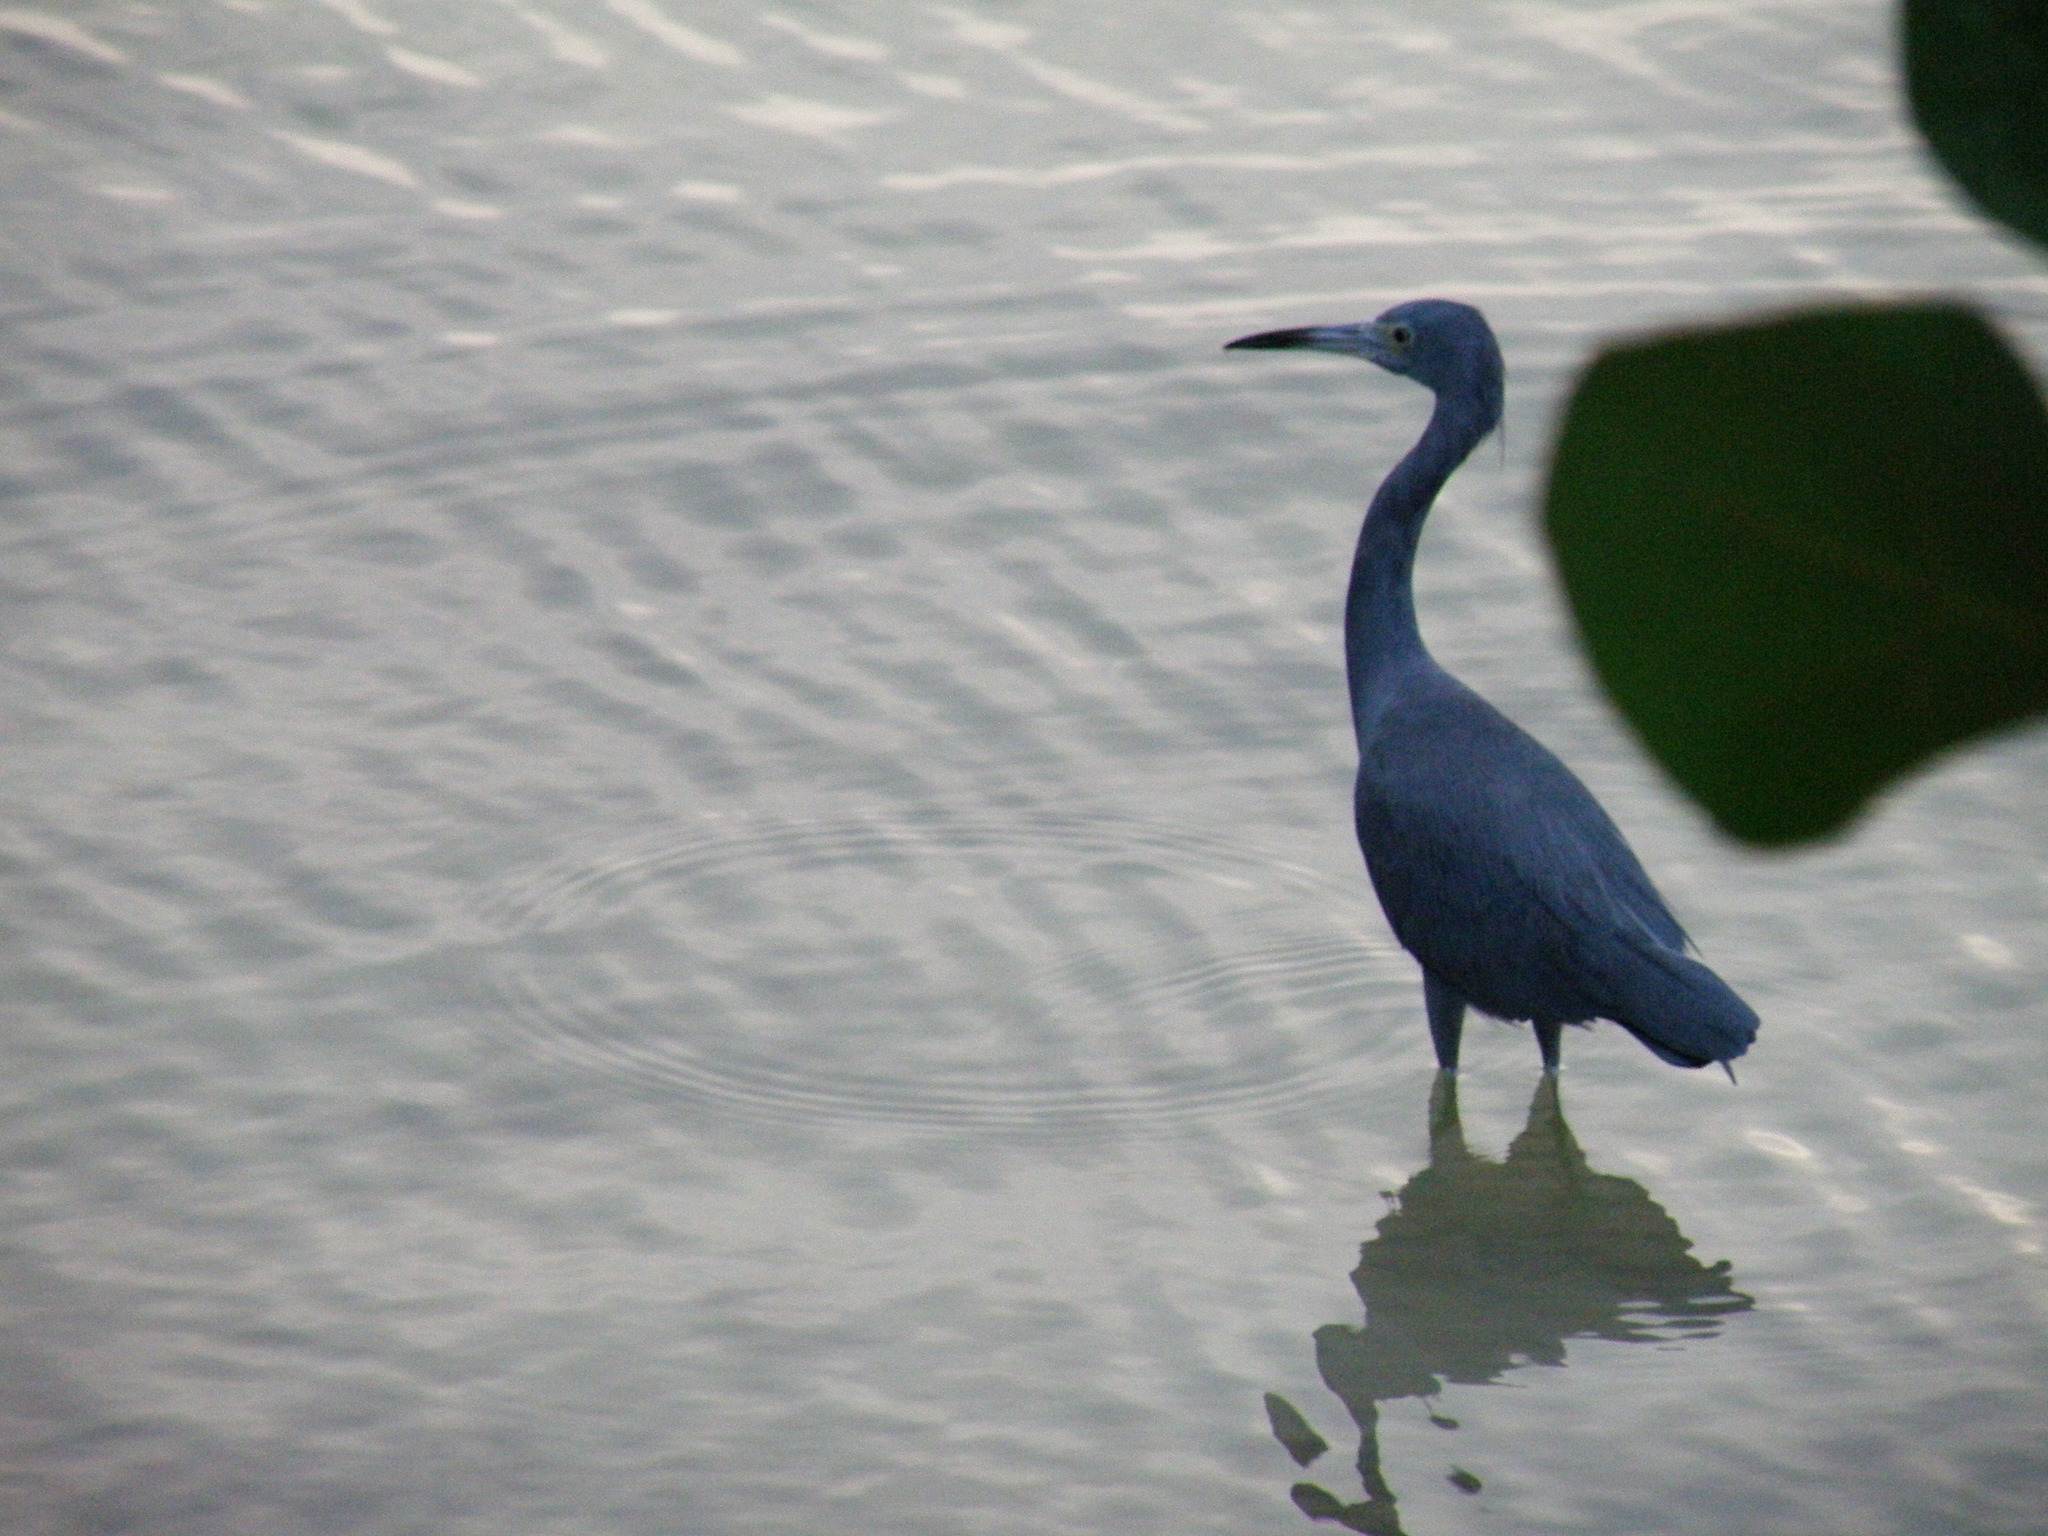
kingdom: Animalia
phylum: Chordata
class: Aves
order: Pelecaniformes
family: Ardeidae
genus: Egretta
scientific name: Egretta caerulea
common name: Little blue heron
